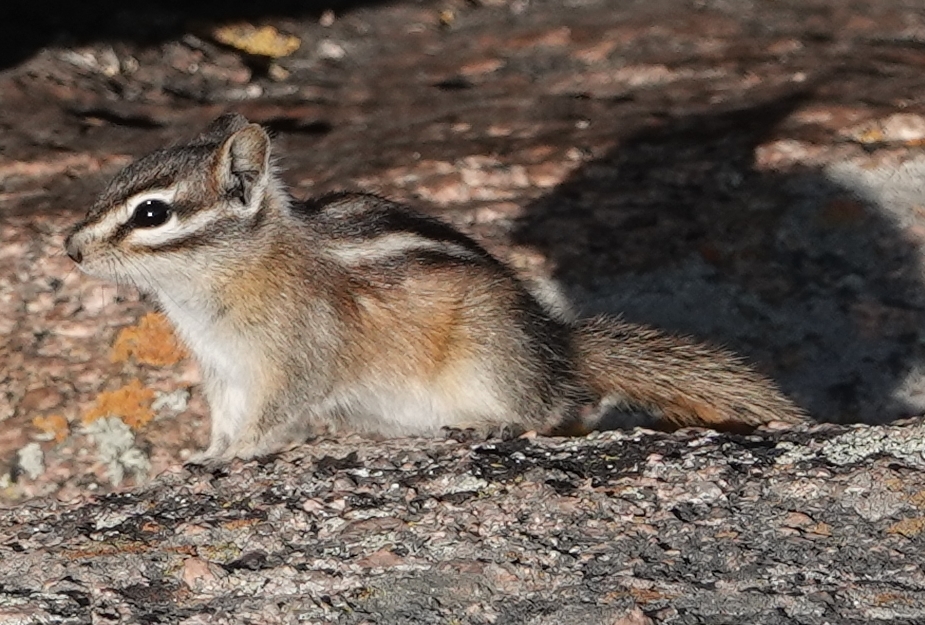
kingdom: Animalia
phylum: Chordata
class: Mammalia
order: Rodentia
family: Sciuridae
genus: Tamias
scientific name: Tamias minimus
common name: Least chipmunk
